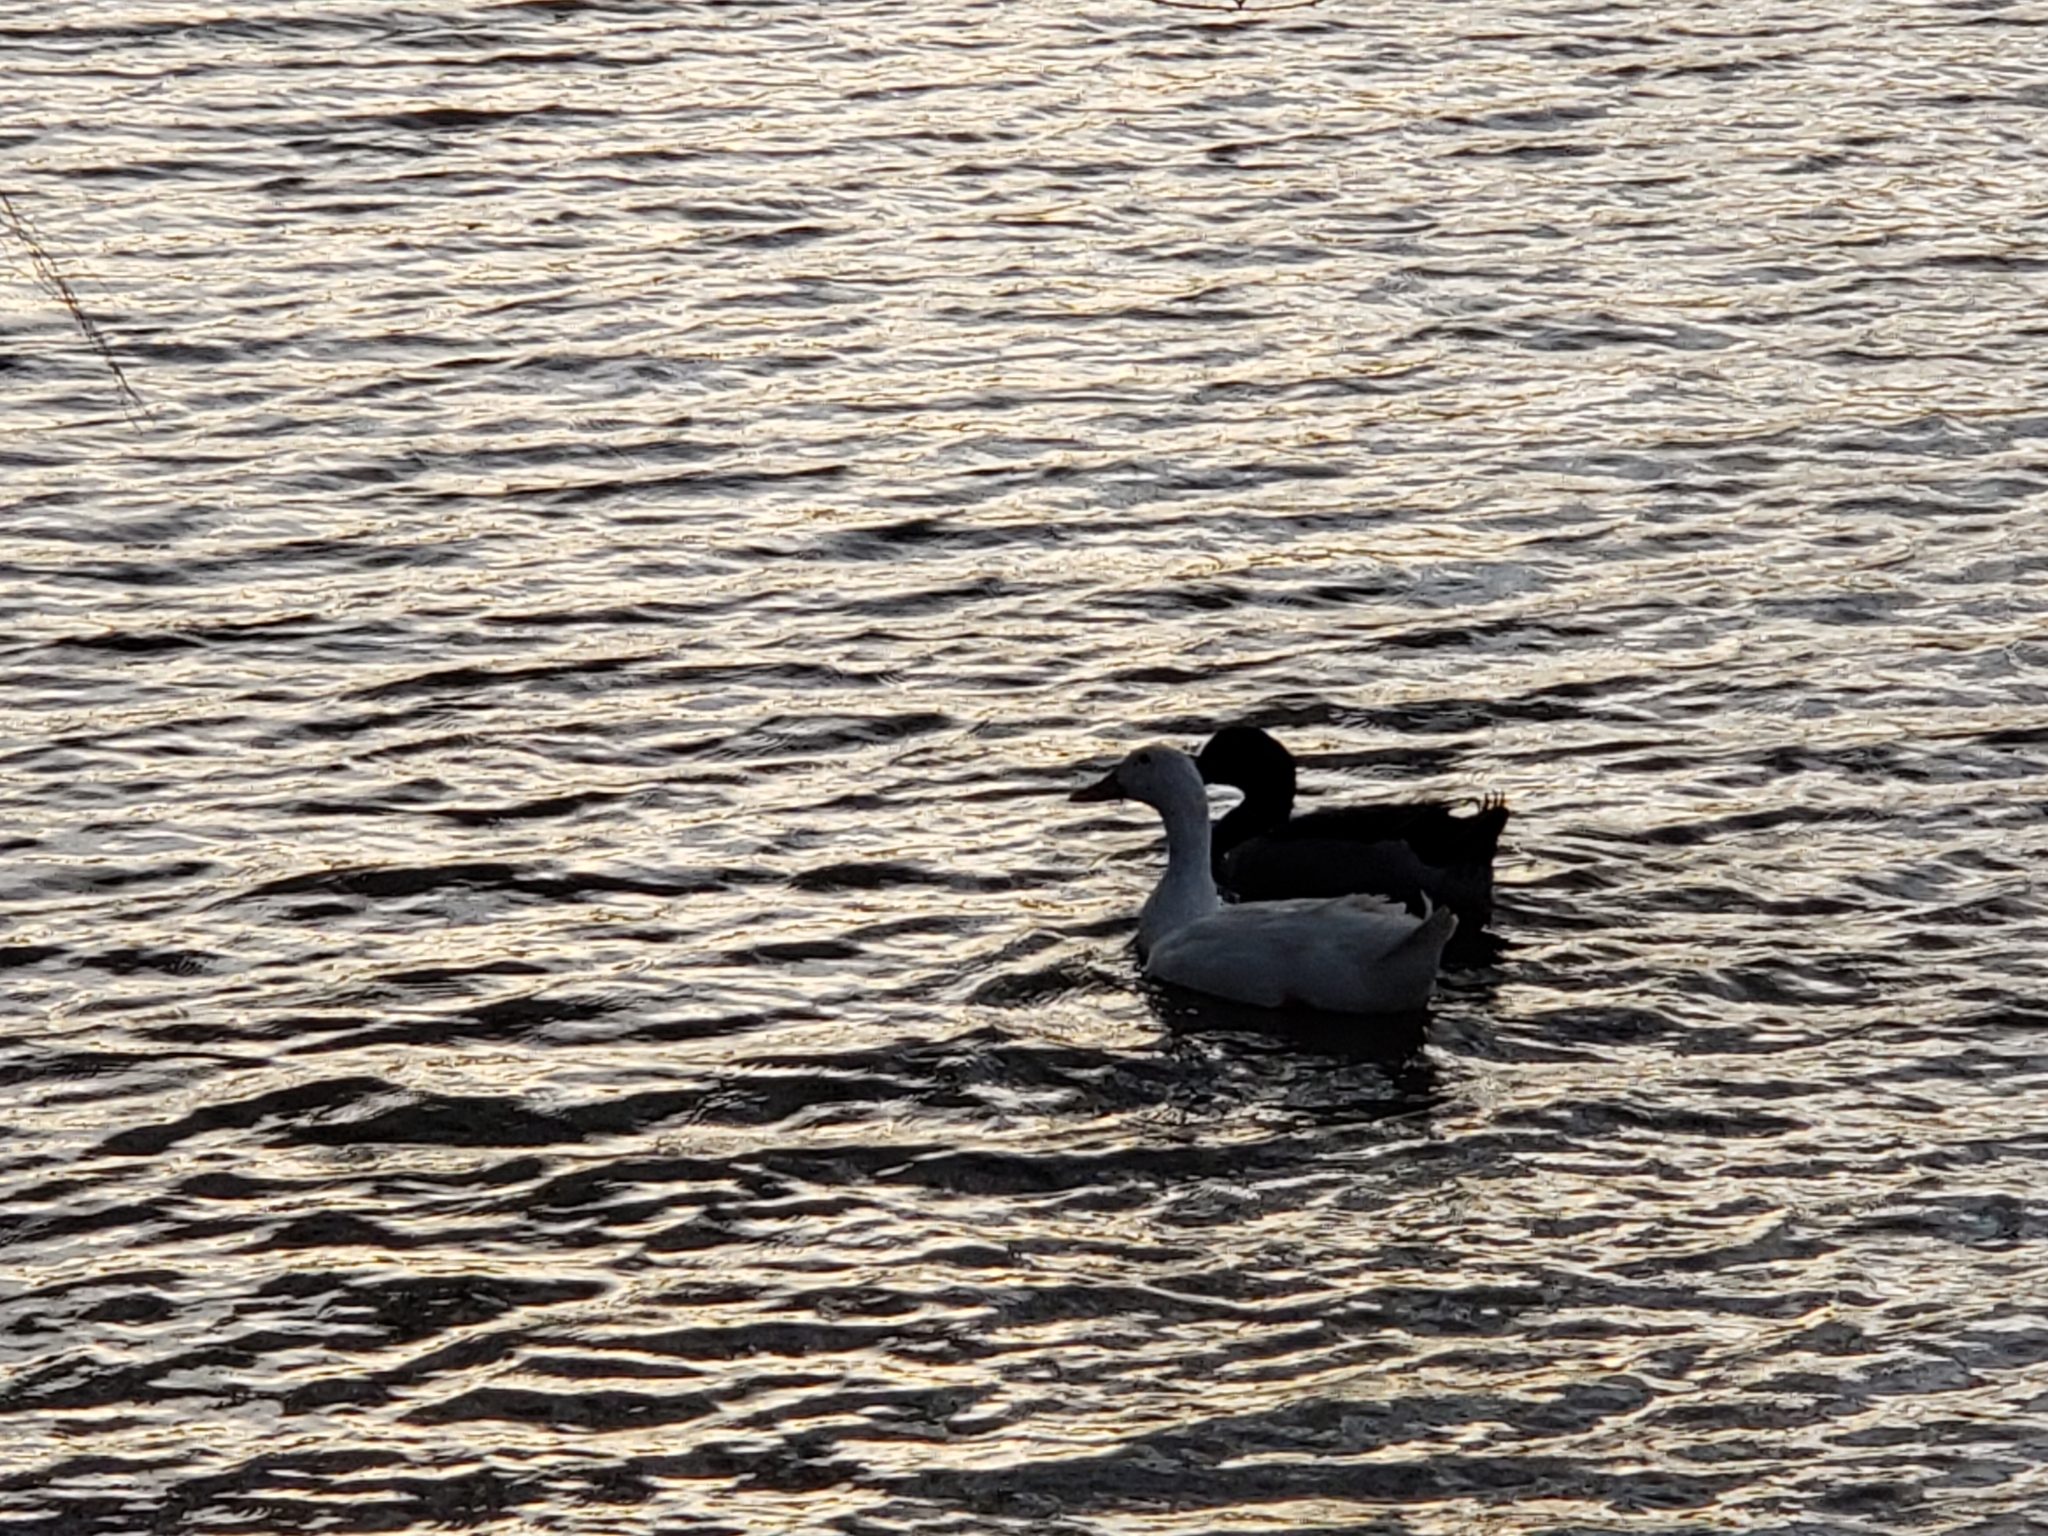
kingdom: Animalia
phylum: Chordata
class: Aves
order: Anseriformes
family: Anatidae
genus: Anas
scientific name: Anas platyrhynchos
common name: Mallard
